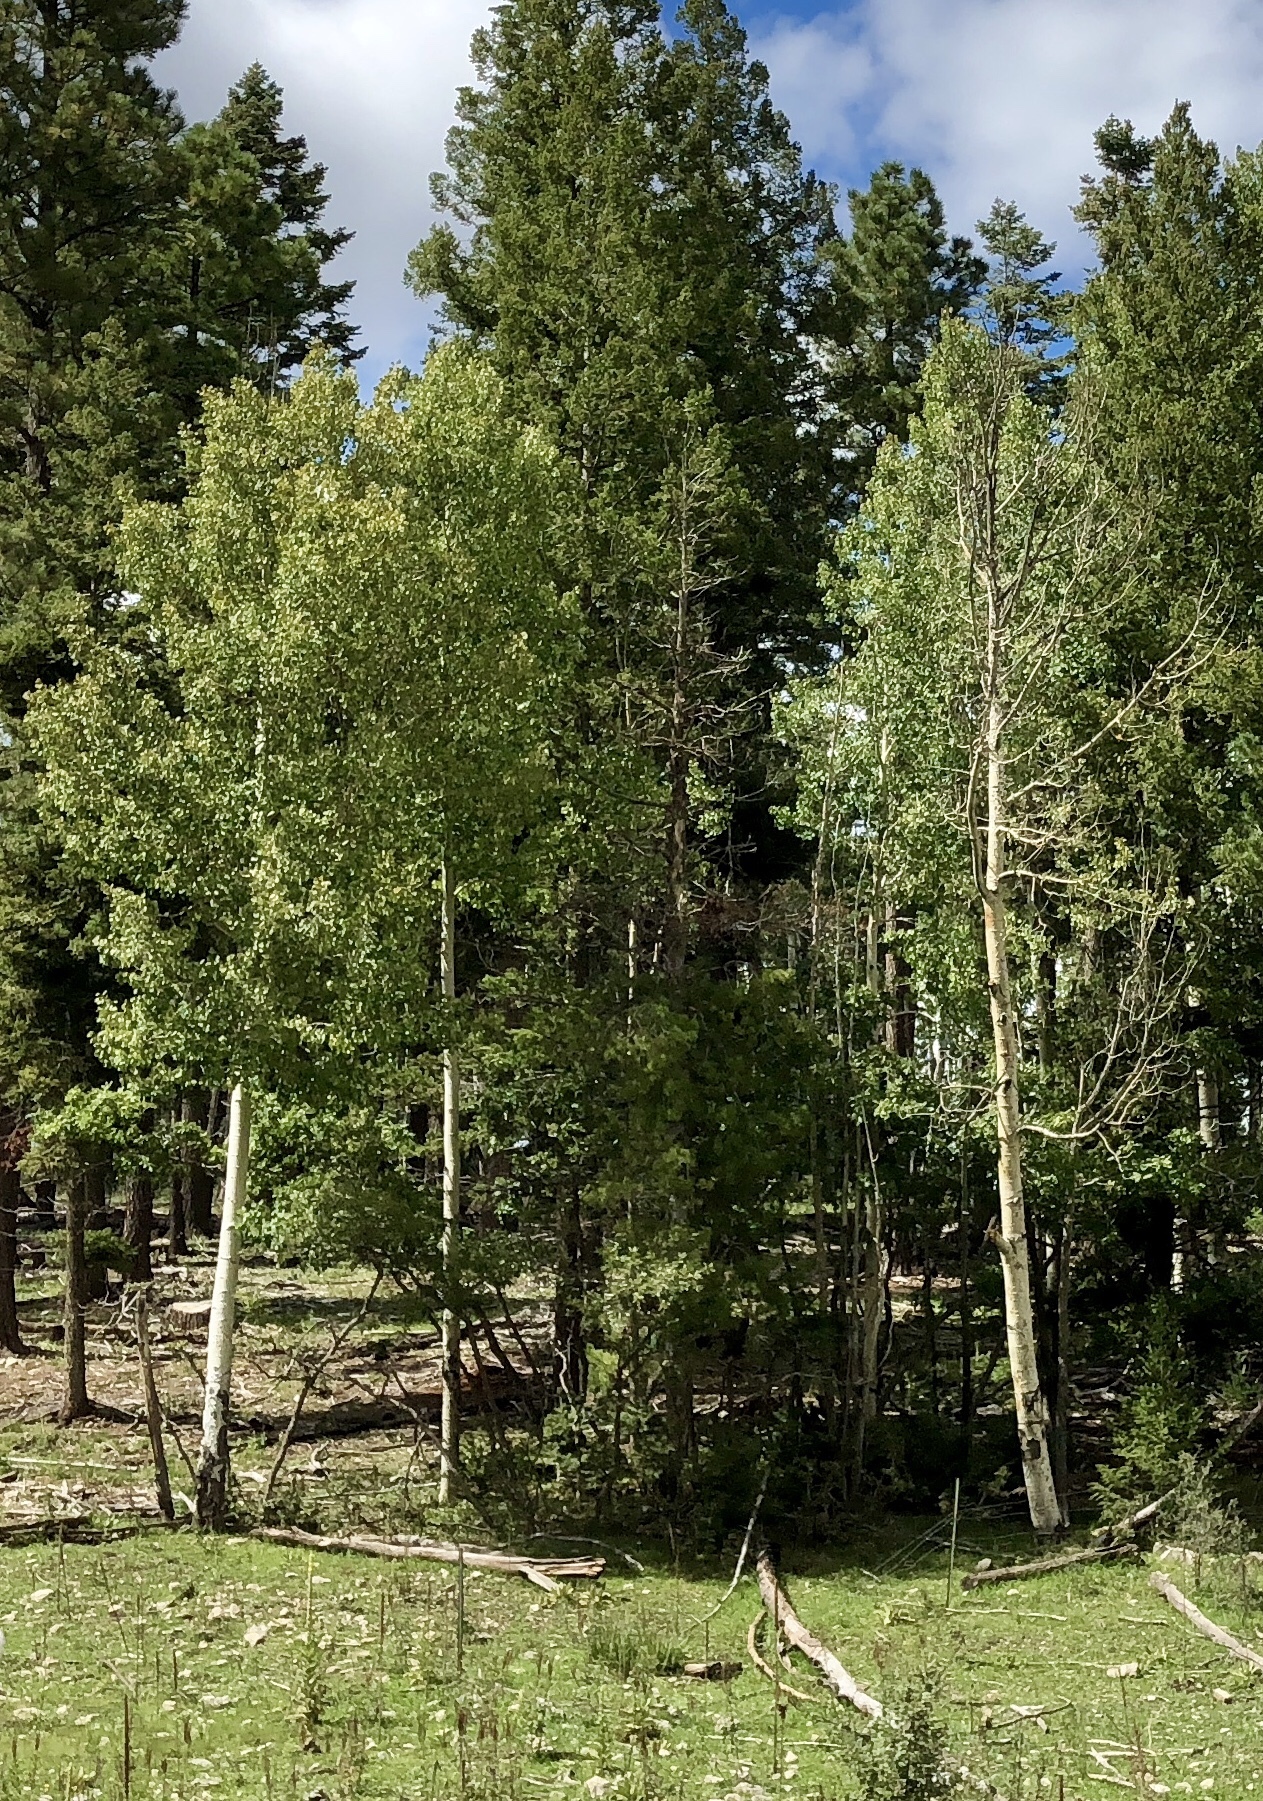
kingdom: Plantae
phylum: Tracheophyta
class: Magnoliopsida
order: Malpighiales
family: Salicaceae
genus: Populus
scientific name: Populus tremuloides
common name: Quaking aspen
